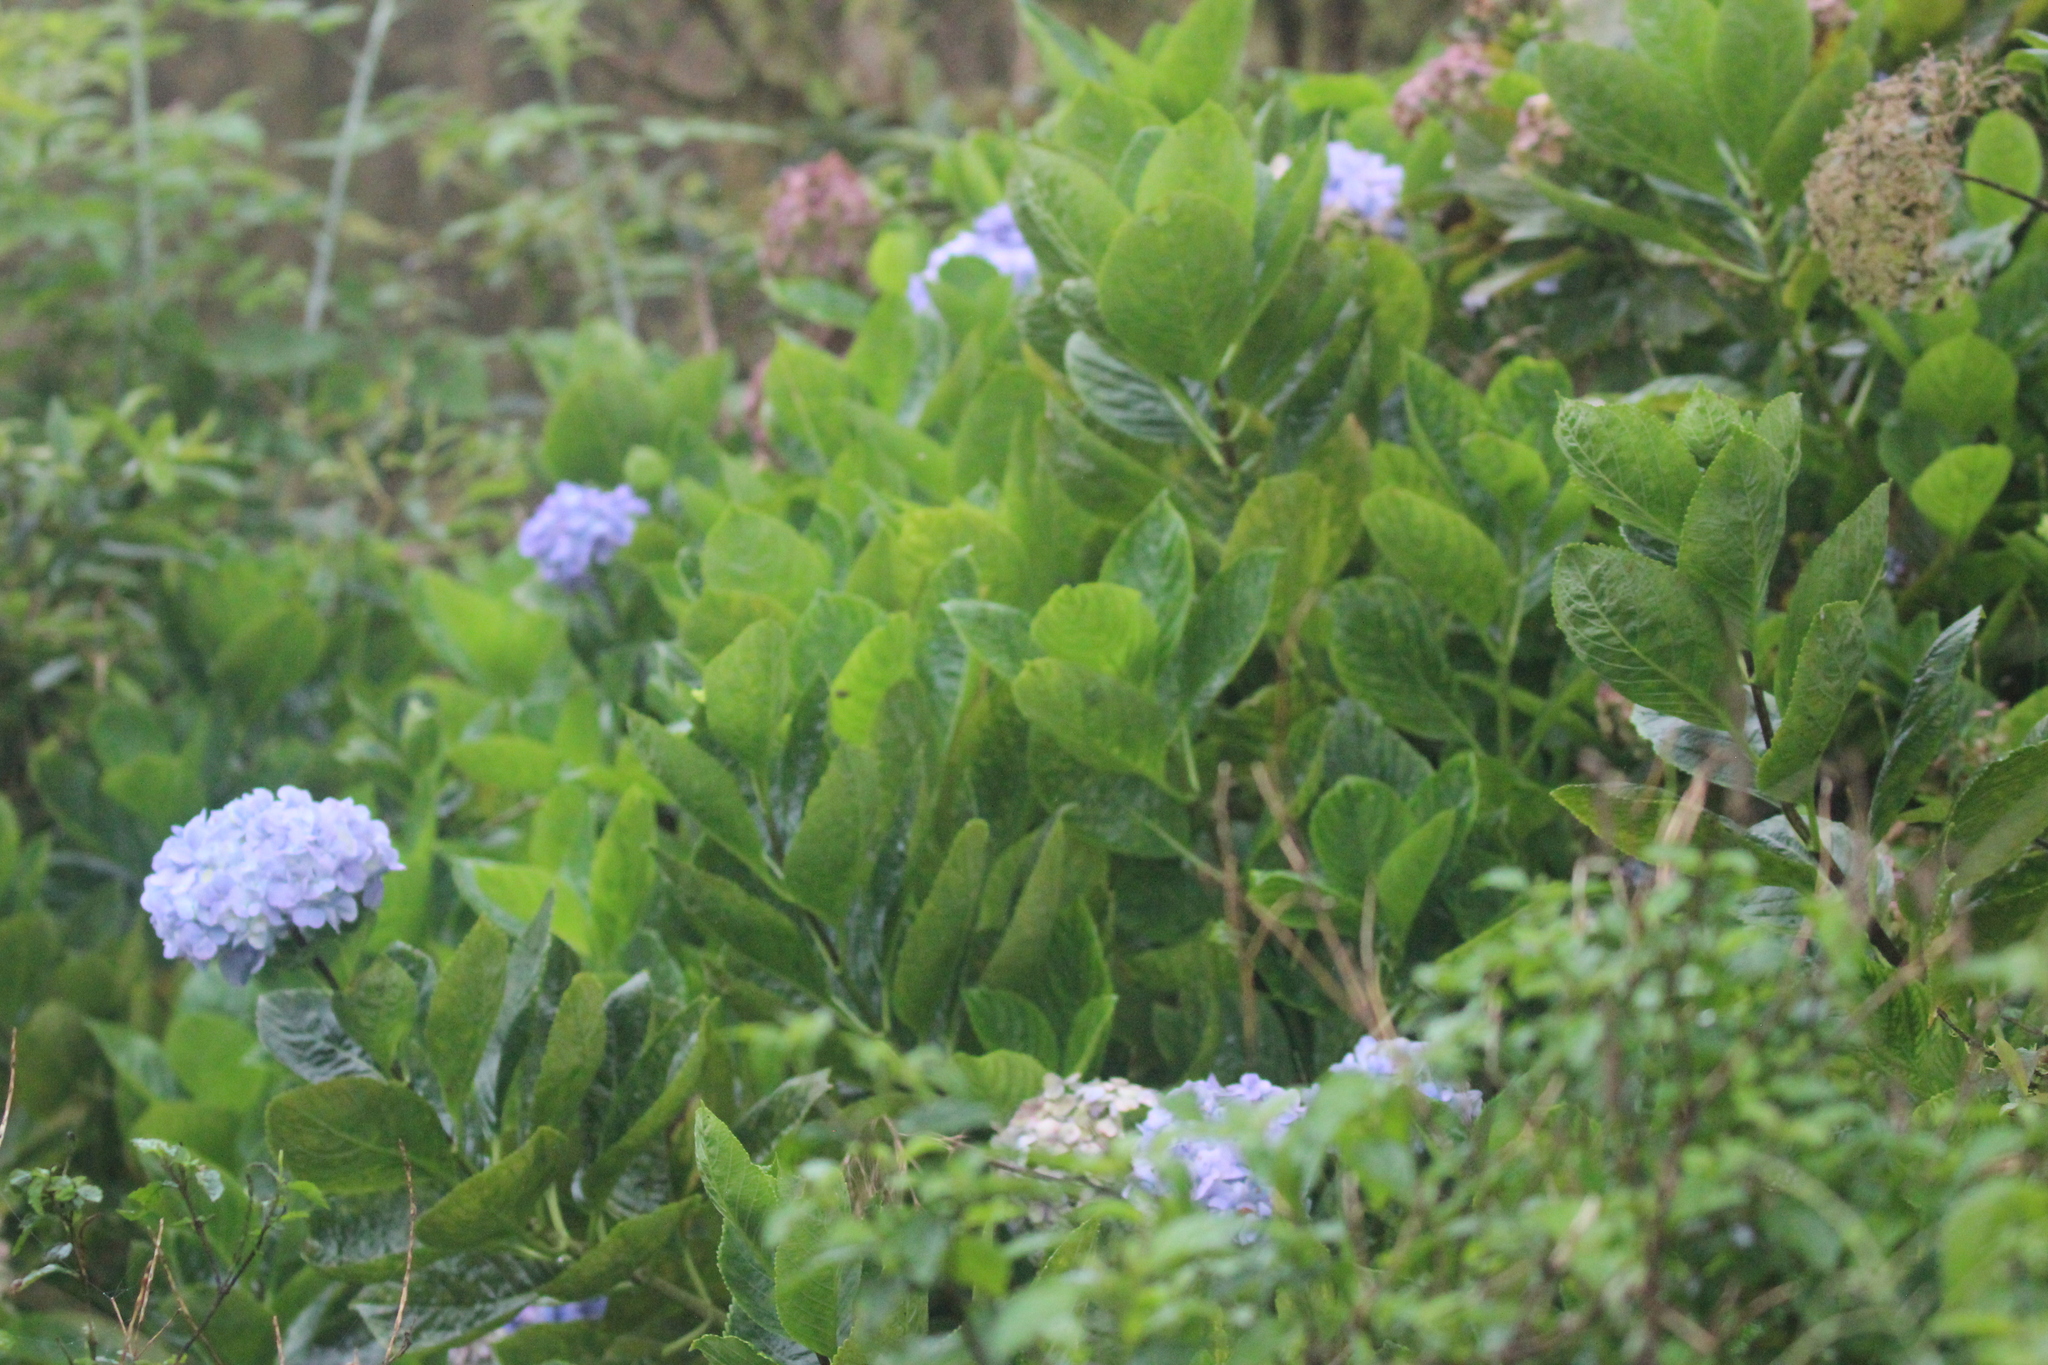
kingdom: Plantae
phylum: Tracheophyta
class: Magnoliopsida
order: Cornales
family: Hydrangeaceae
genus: Hydrangea
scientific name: Hydrangea macrophylla
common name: Hydrangea
